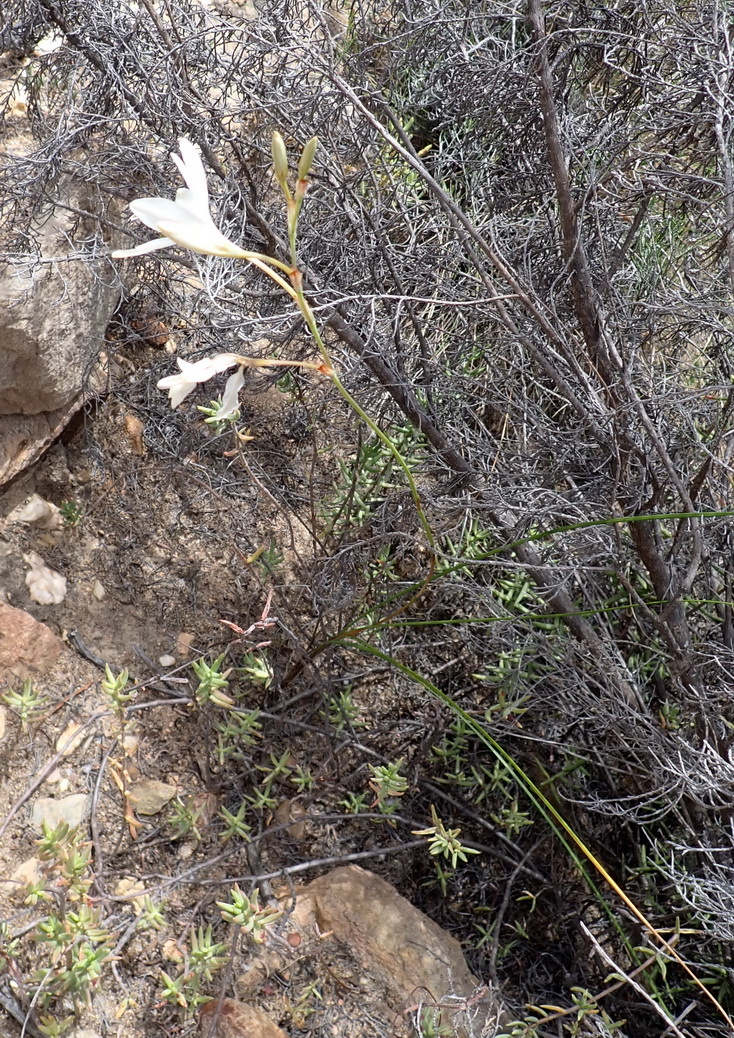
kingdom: Plantae
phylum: Tracheophyta
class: Liliopsida
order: Asparagales
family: Iridaceae
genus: Tritonia
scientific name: Tritonia bakeri
